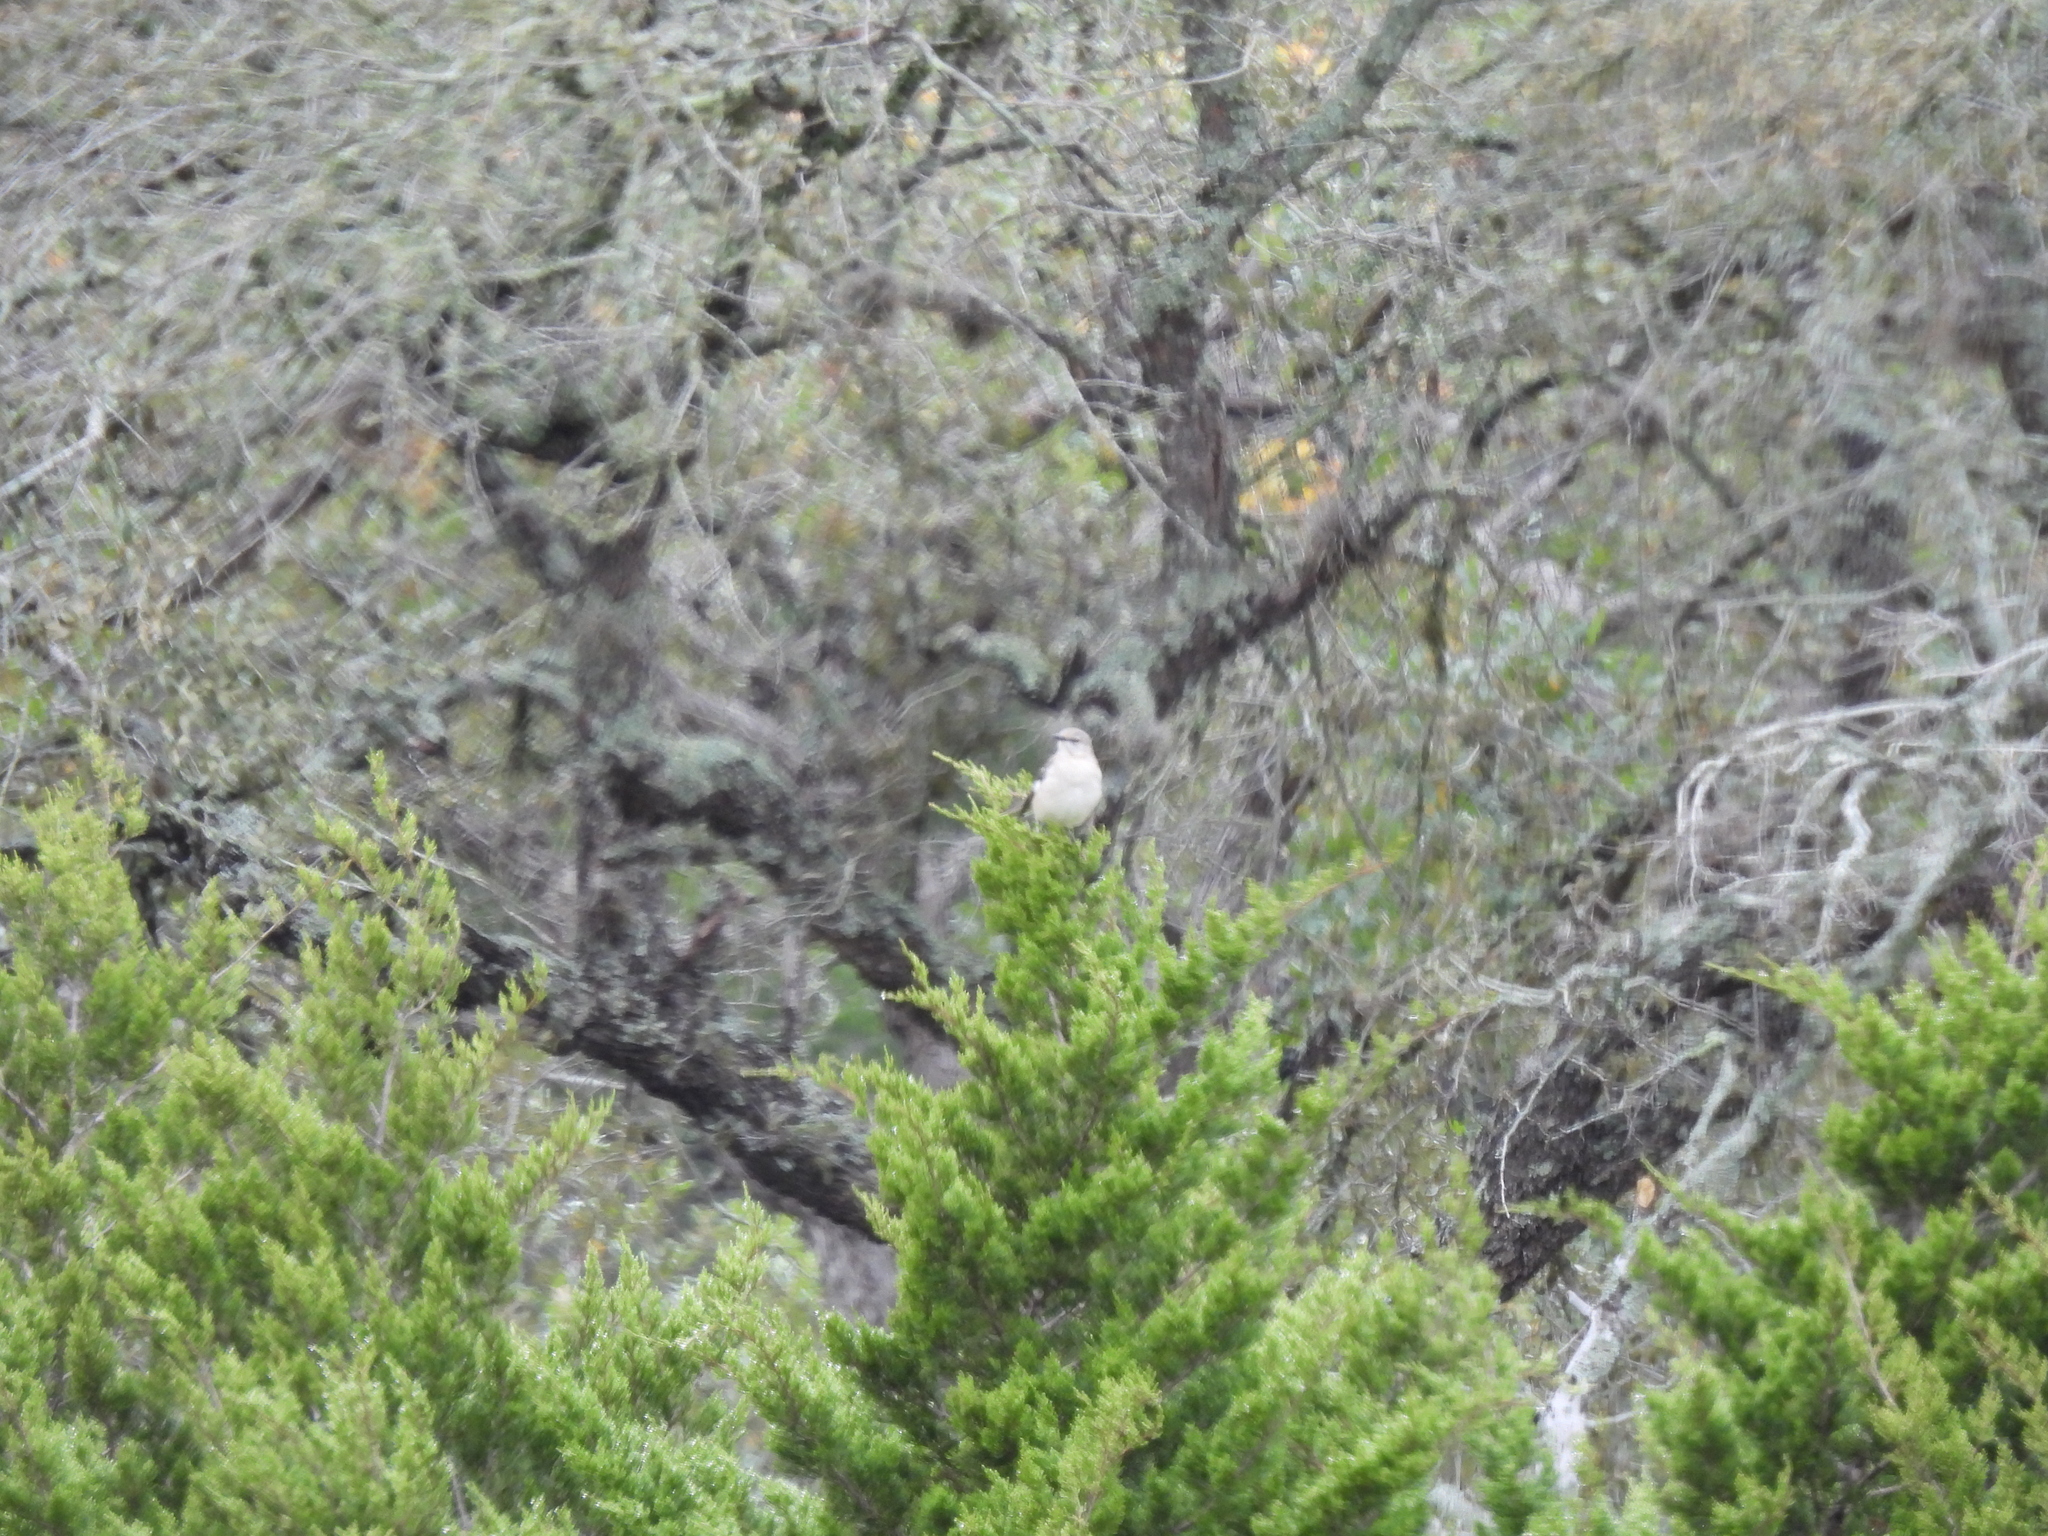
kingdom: Animalia
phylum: Chordata
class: Aves
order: Passeriformes
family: Mimidae
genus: Mimus
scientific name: Mimus polyglottos
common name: Northern mockingbird
